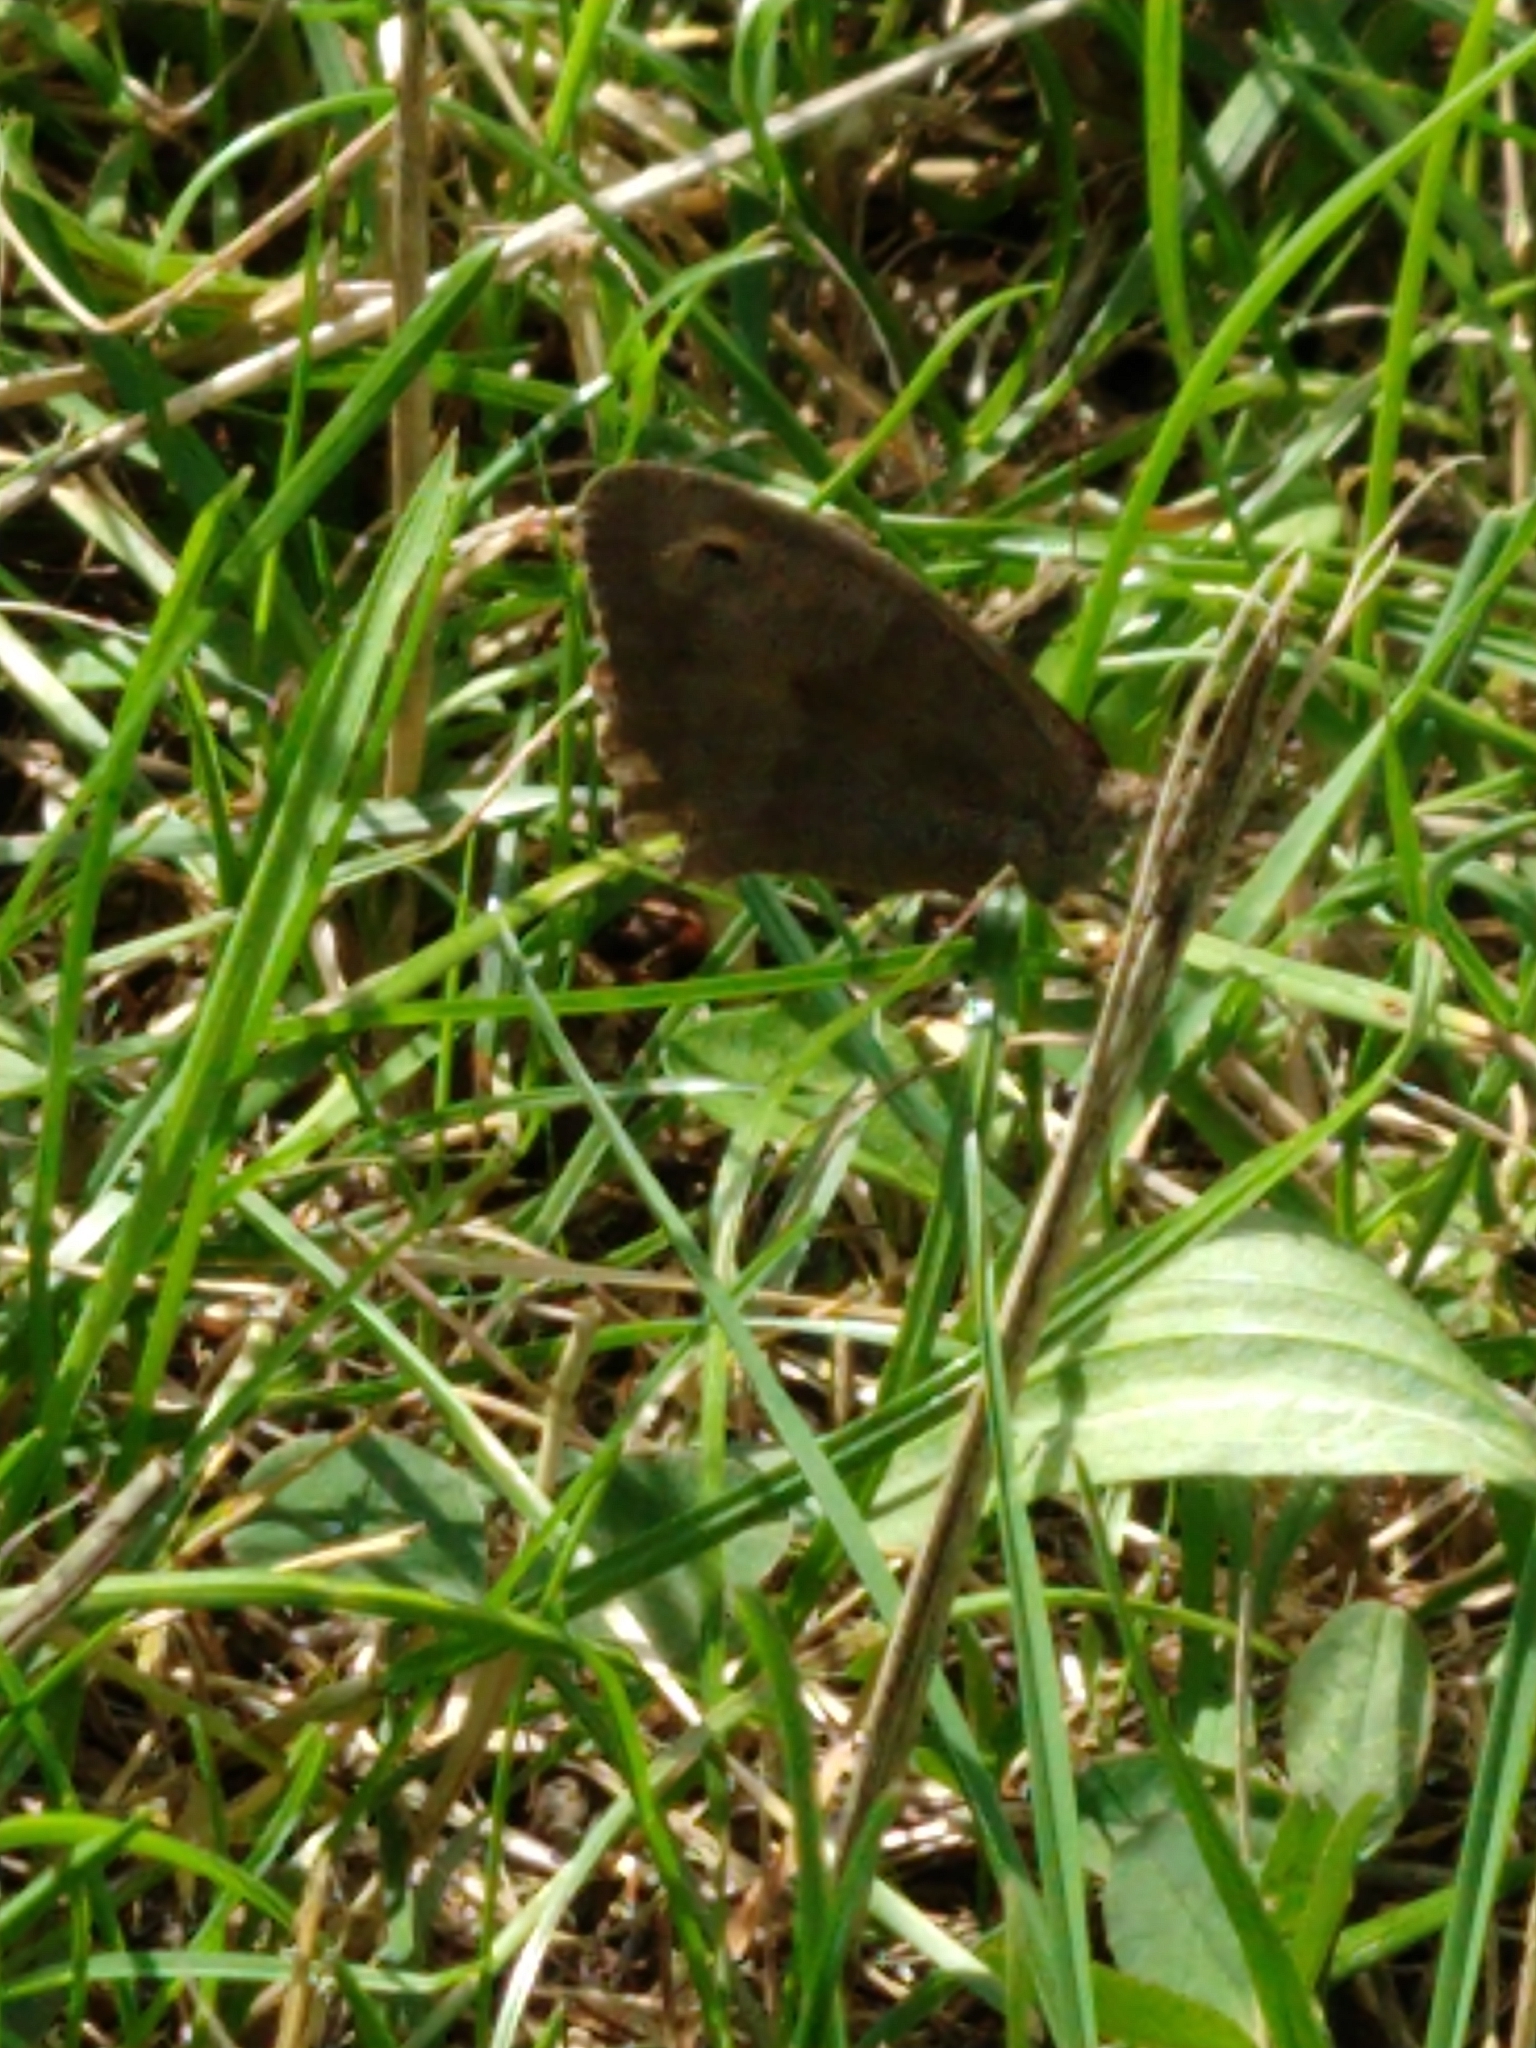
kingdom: Animalia
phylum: Arthropoda
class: Insecta
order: Lepidoptera
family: Nymphalidae
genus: Maniola
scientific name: Maniola jurtina
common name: Meadow brown
